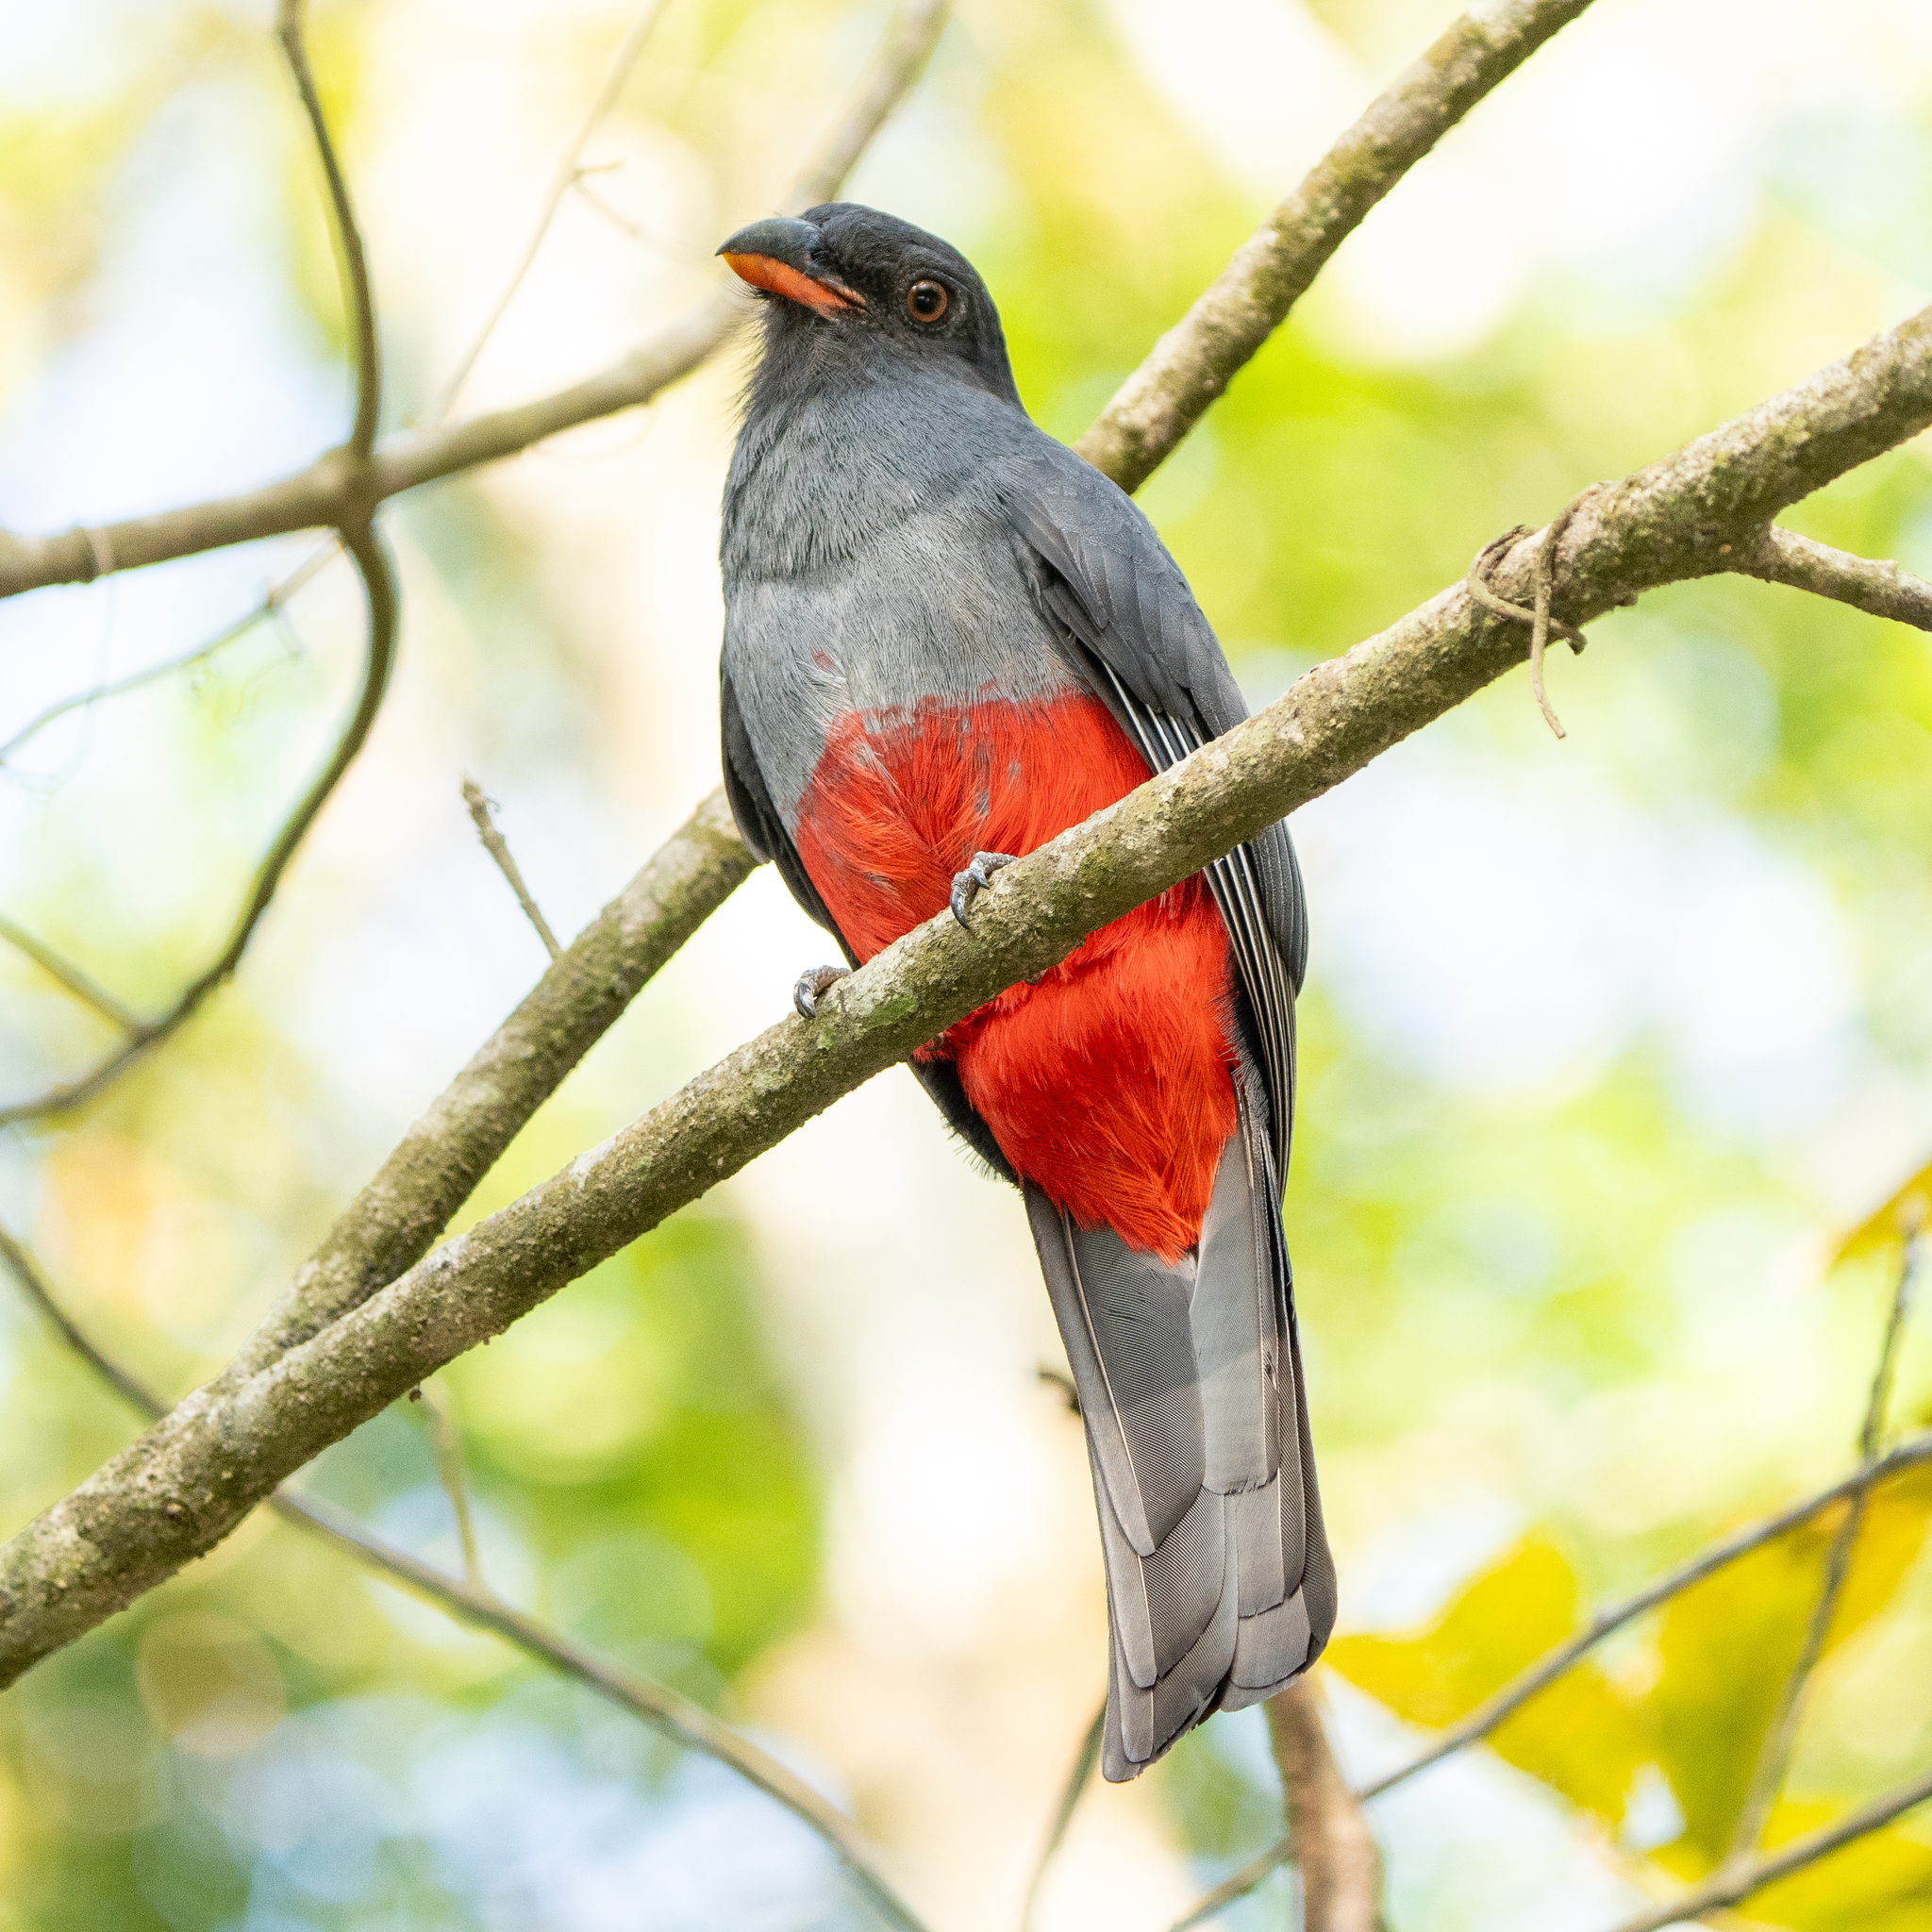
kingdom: Animalia
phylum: Chordata
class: Aves
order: Trogoniformes
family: Trogonidae
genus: Trogon
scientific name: Trogon massena
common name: Slaty-tailed trogon
